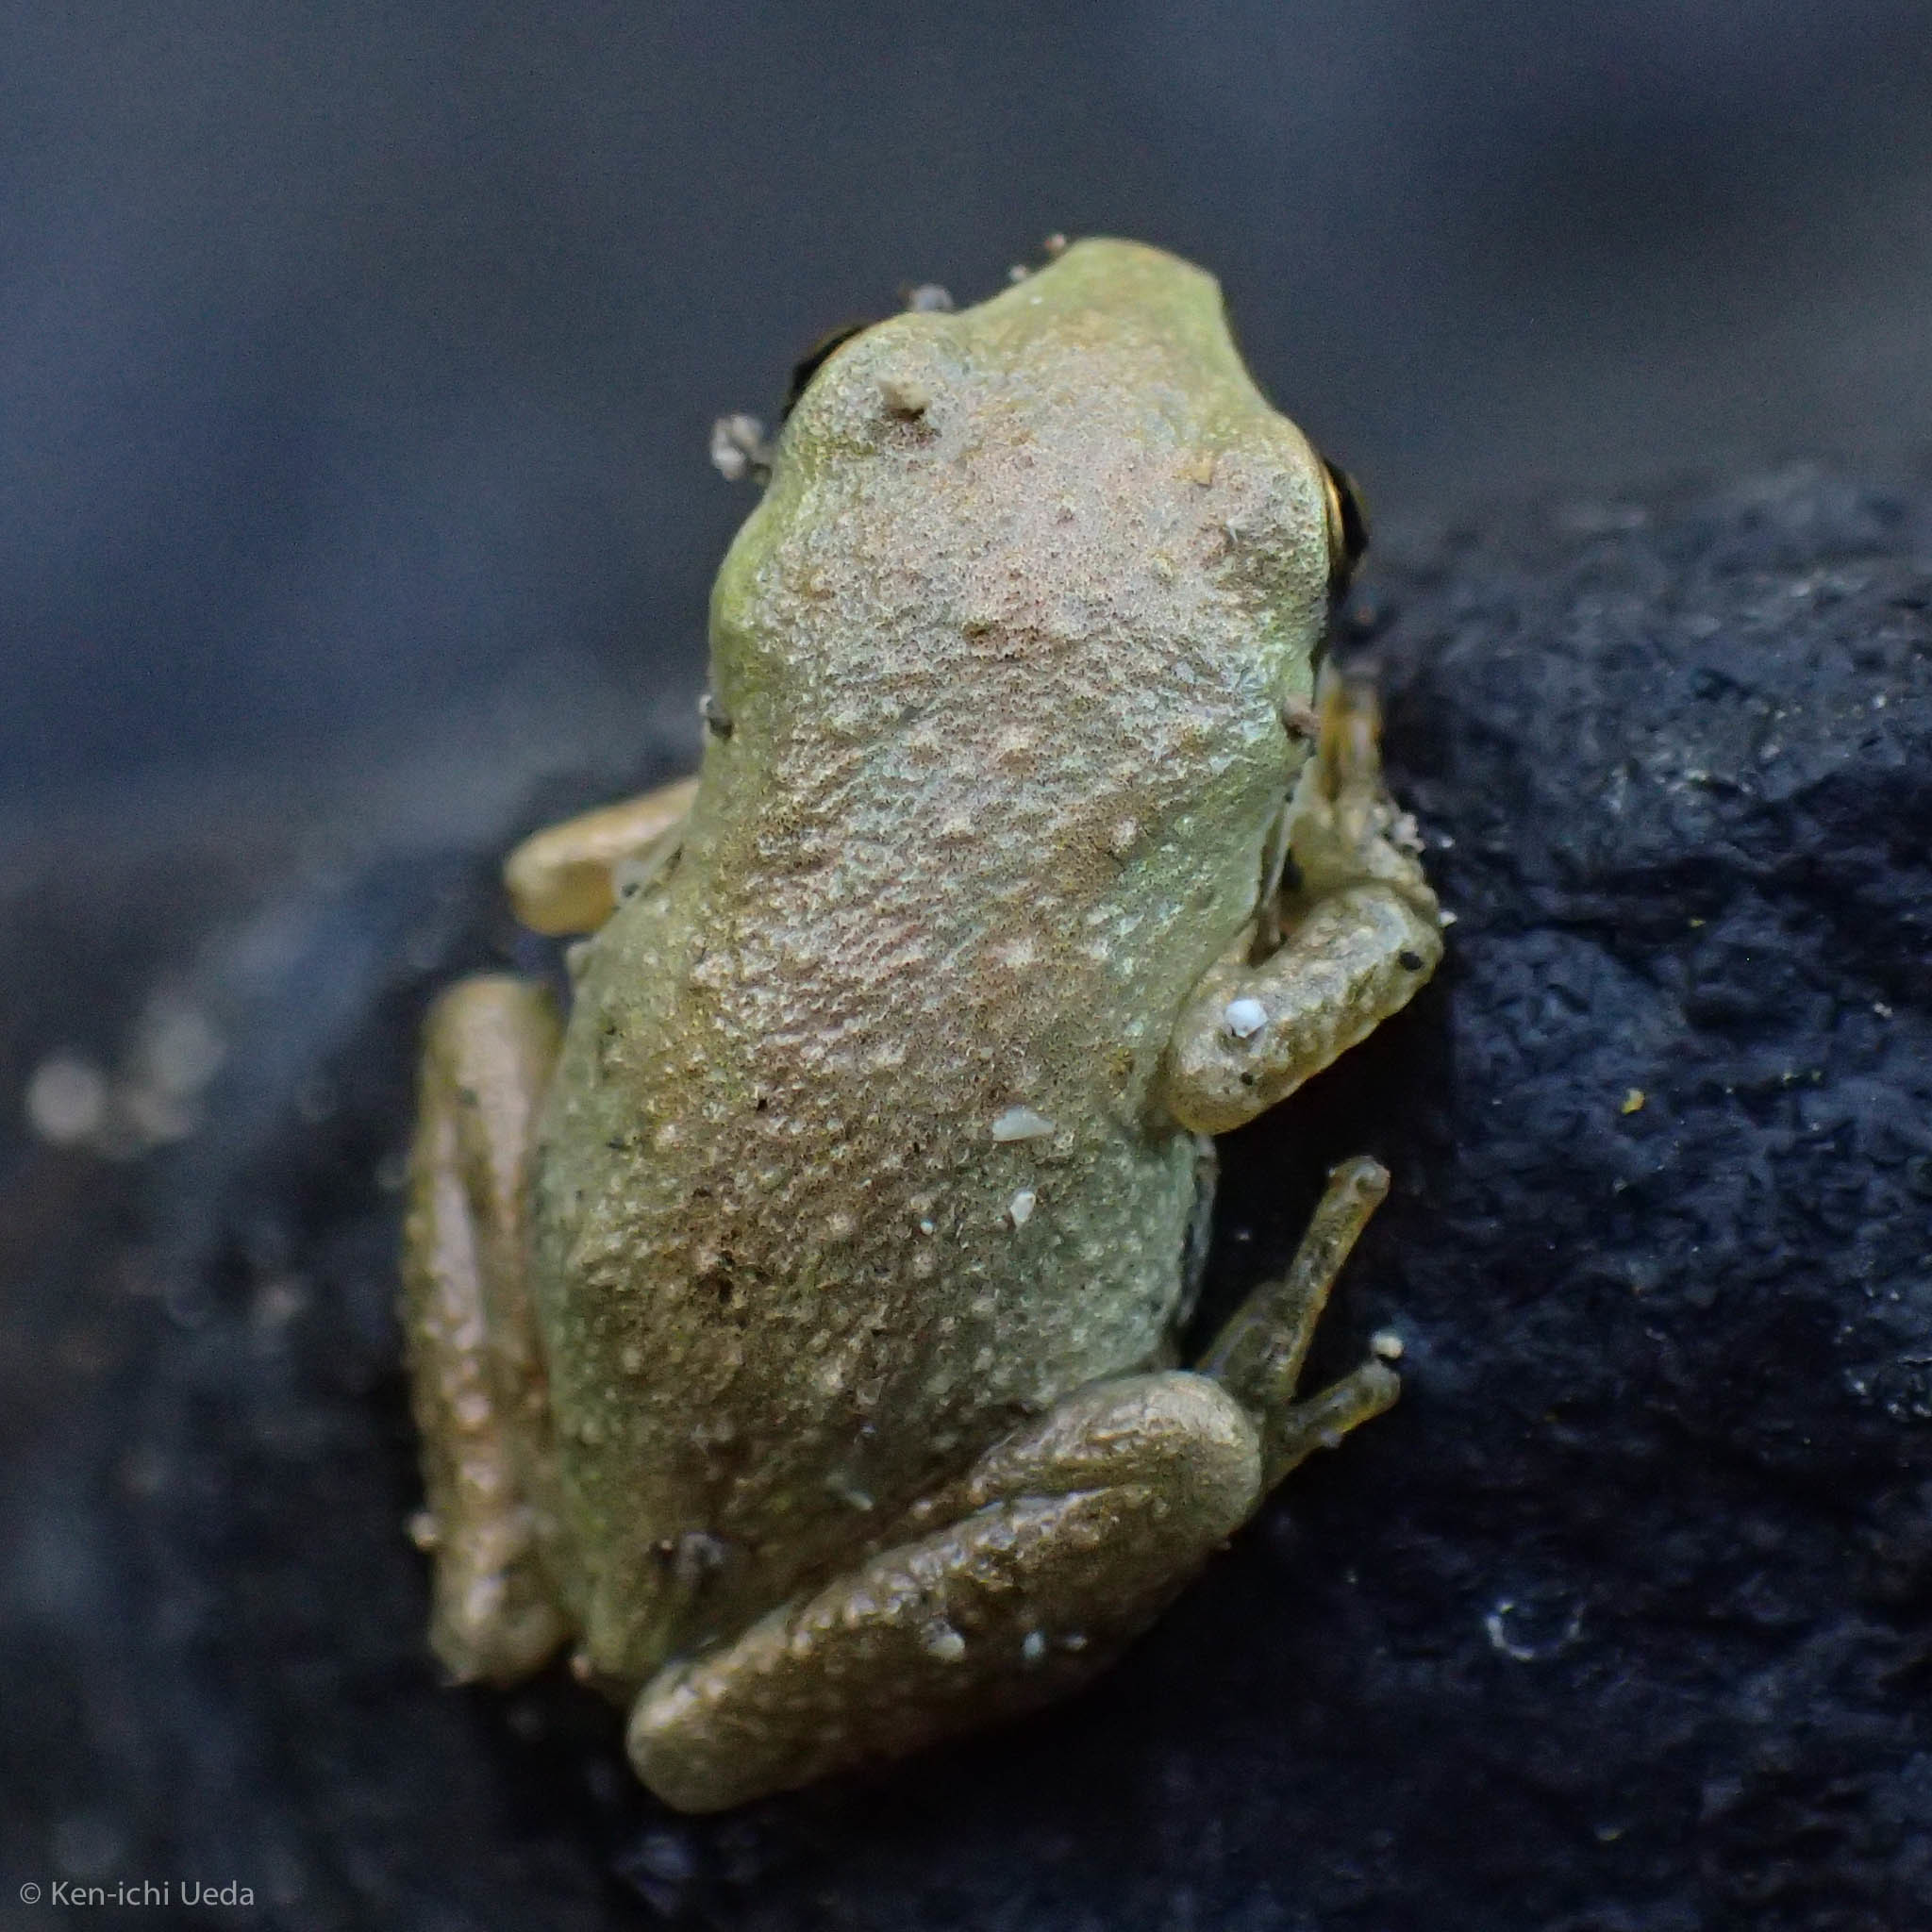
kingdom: Animalia
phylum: Chordata
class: Amphibia
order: Anura
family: Hylidae
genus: Pseudacris
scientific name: Pseudacris regilla
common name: Pacific chorus frog
